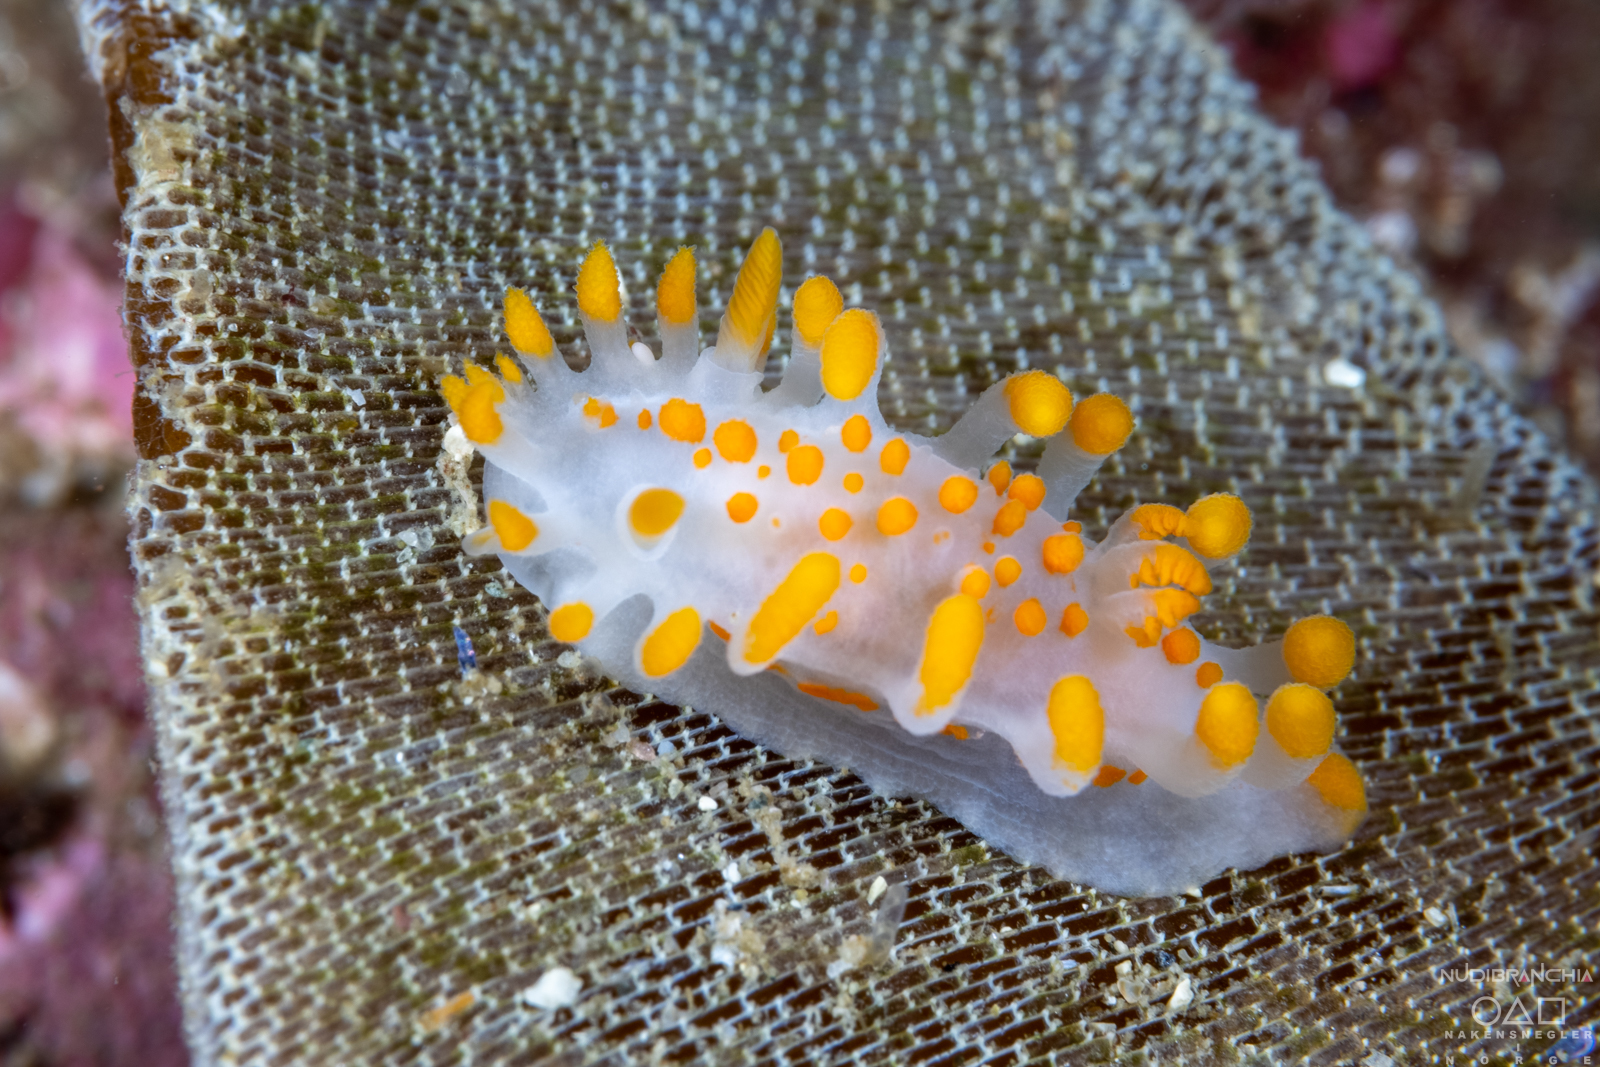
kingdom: Animalia
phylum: Mollusca
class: Gastropoda
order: Nudibranchia
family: Polyceridae
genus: Limacia
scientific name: Limacia clavigera
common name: Orange-clubbed sea slug
